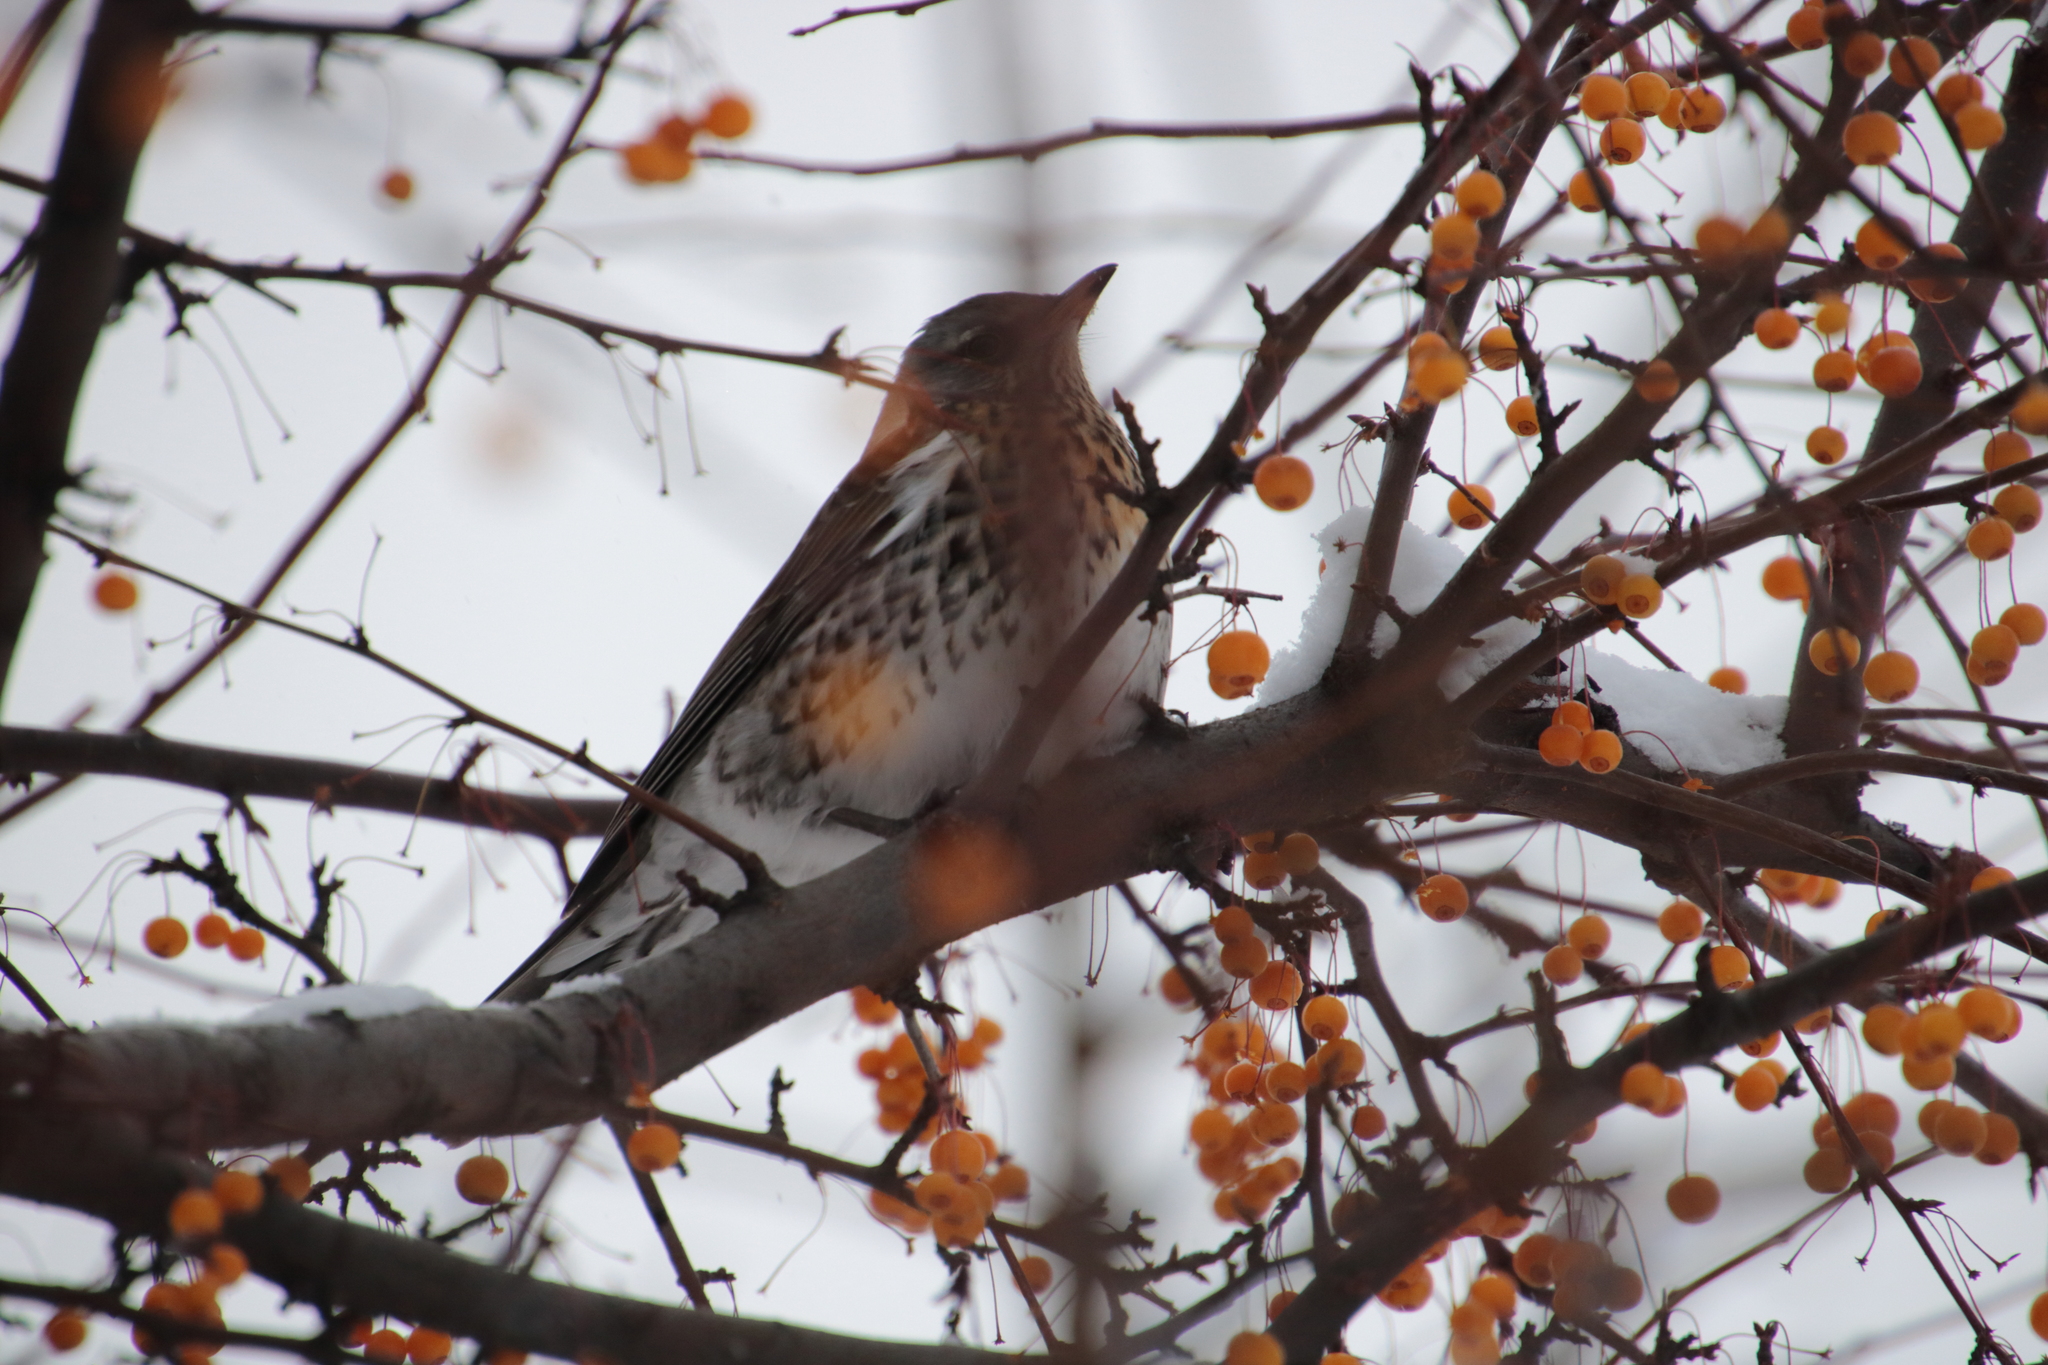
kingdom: Animalia
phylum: Chordata
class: Aves
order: Passeriformes
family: Turdidae
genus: Turdus
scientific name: Turdus pilaris
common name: Fieldfare
